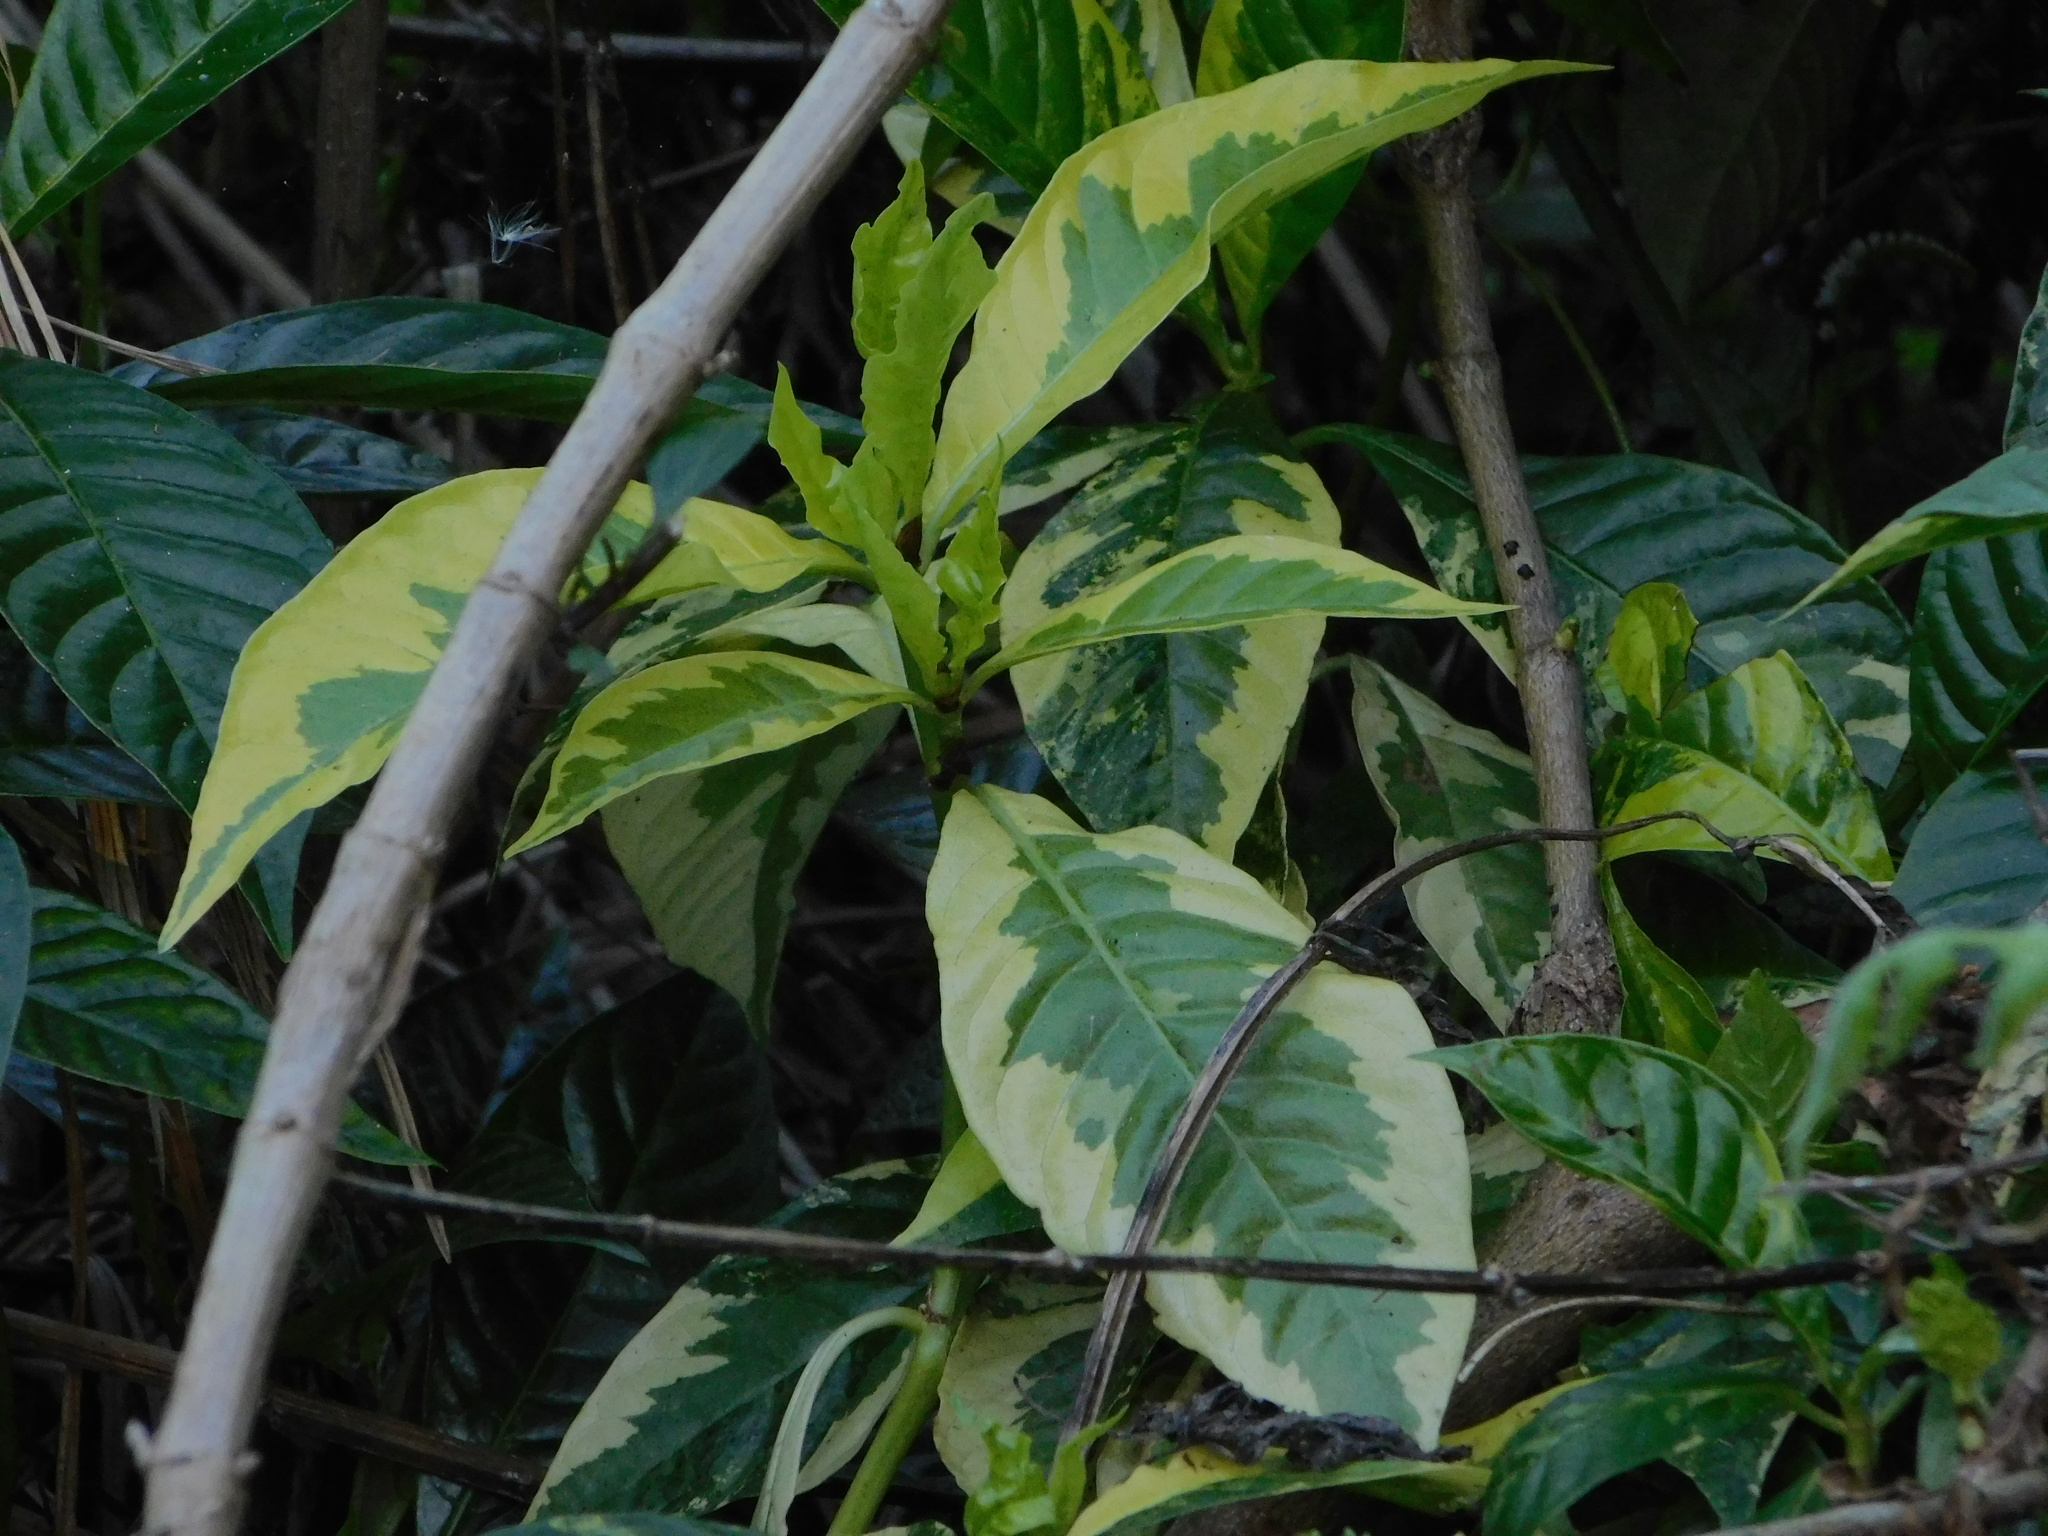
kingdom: Plantae
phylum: Tracheophyta
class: Magnoliopsida
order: Gentianales
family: Rubiaceae
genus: Psychotria
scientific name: Psychotria nervosa
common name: Bastard cankerberry
